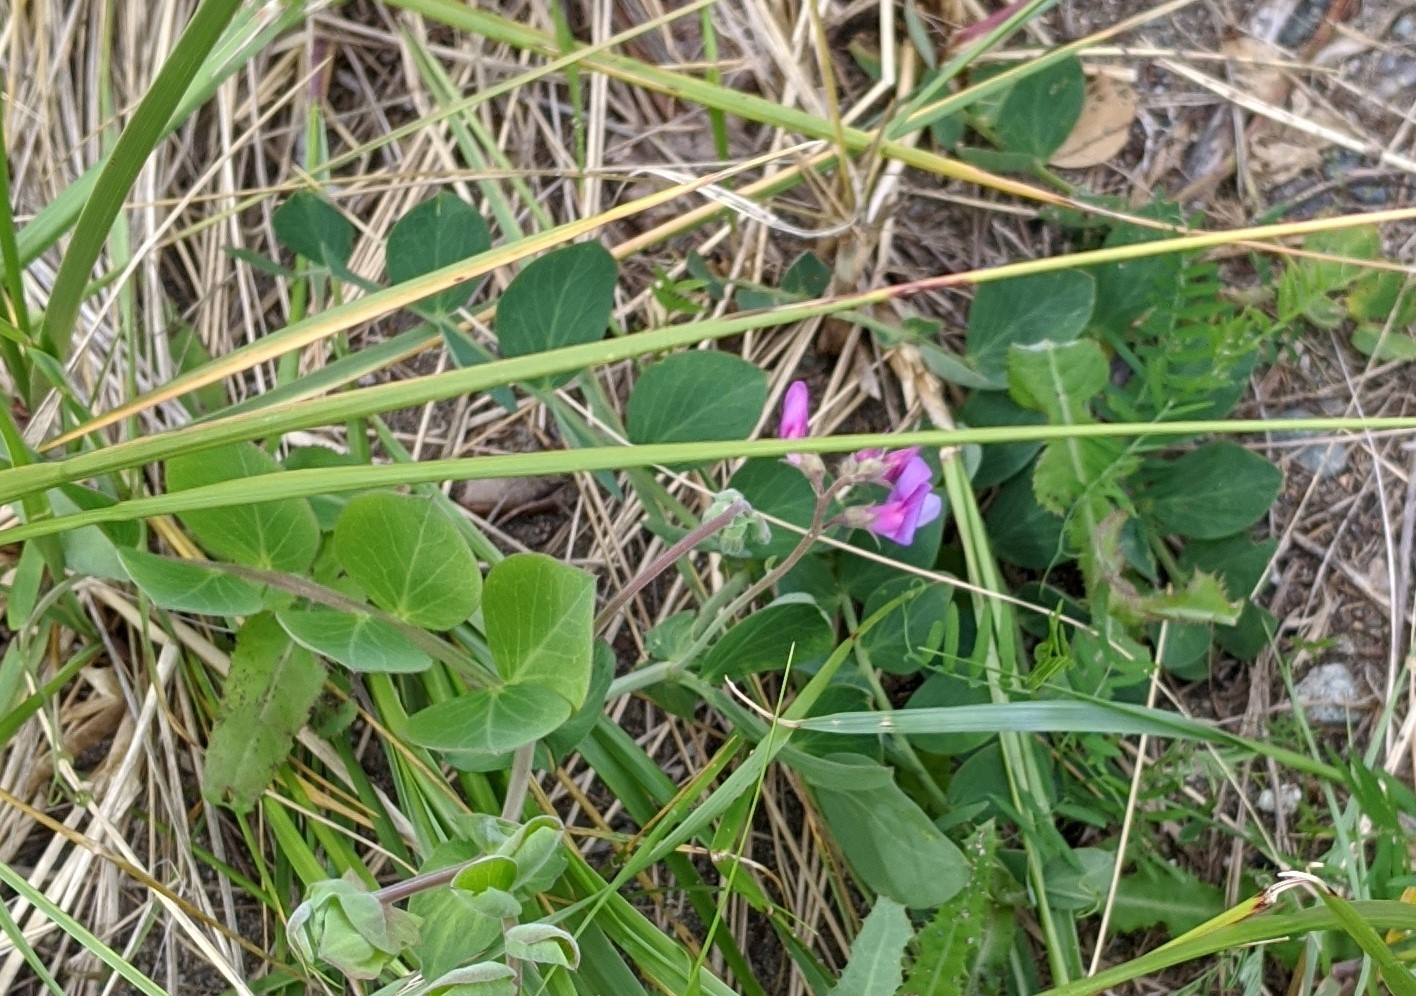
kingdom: Plantae
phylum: Tracheophyta
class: Magnoliopsida
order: Fabales
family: Fabaceae
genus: Lathyrus
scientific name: Lathyrus japonicus
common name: Sea pea
